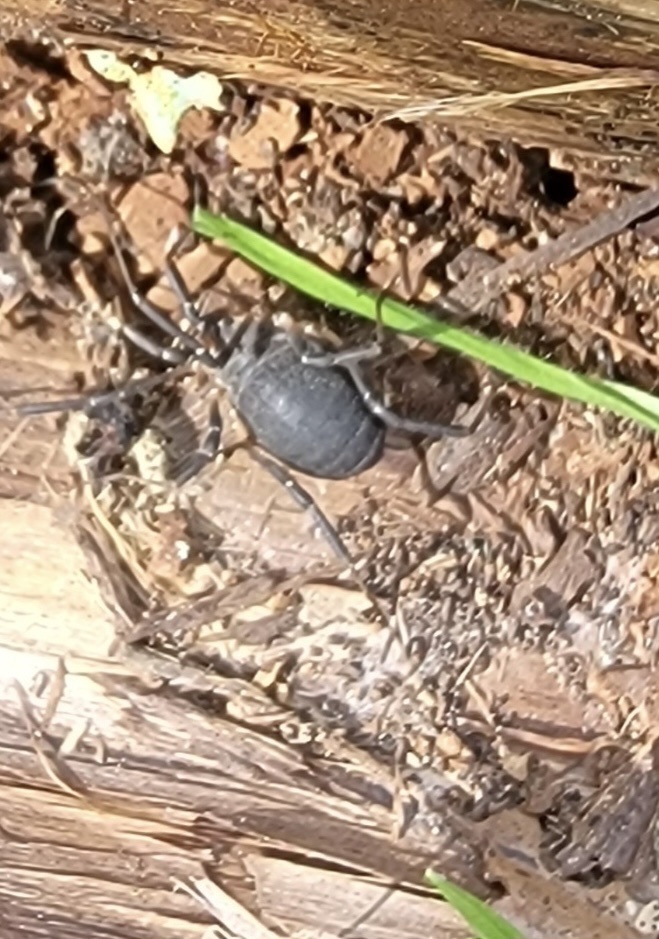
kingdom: Animalia
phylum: Arthropoda
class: Arachnida
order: Opiliones
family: Sclerosomatidae
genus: Eumesosoma
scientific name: Eumesosoma roeweri
